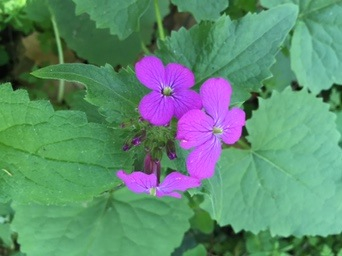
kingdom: Plantae
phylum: Tracheophyta
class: Magnoliopsida
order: Brassicales
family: Brassicaceae
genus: Lunaria
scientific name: Lunaria annua
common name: Honesty
